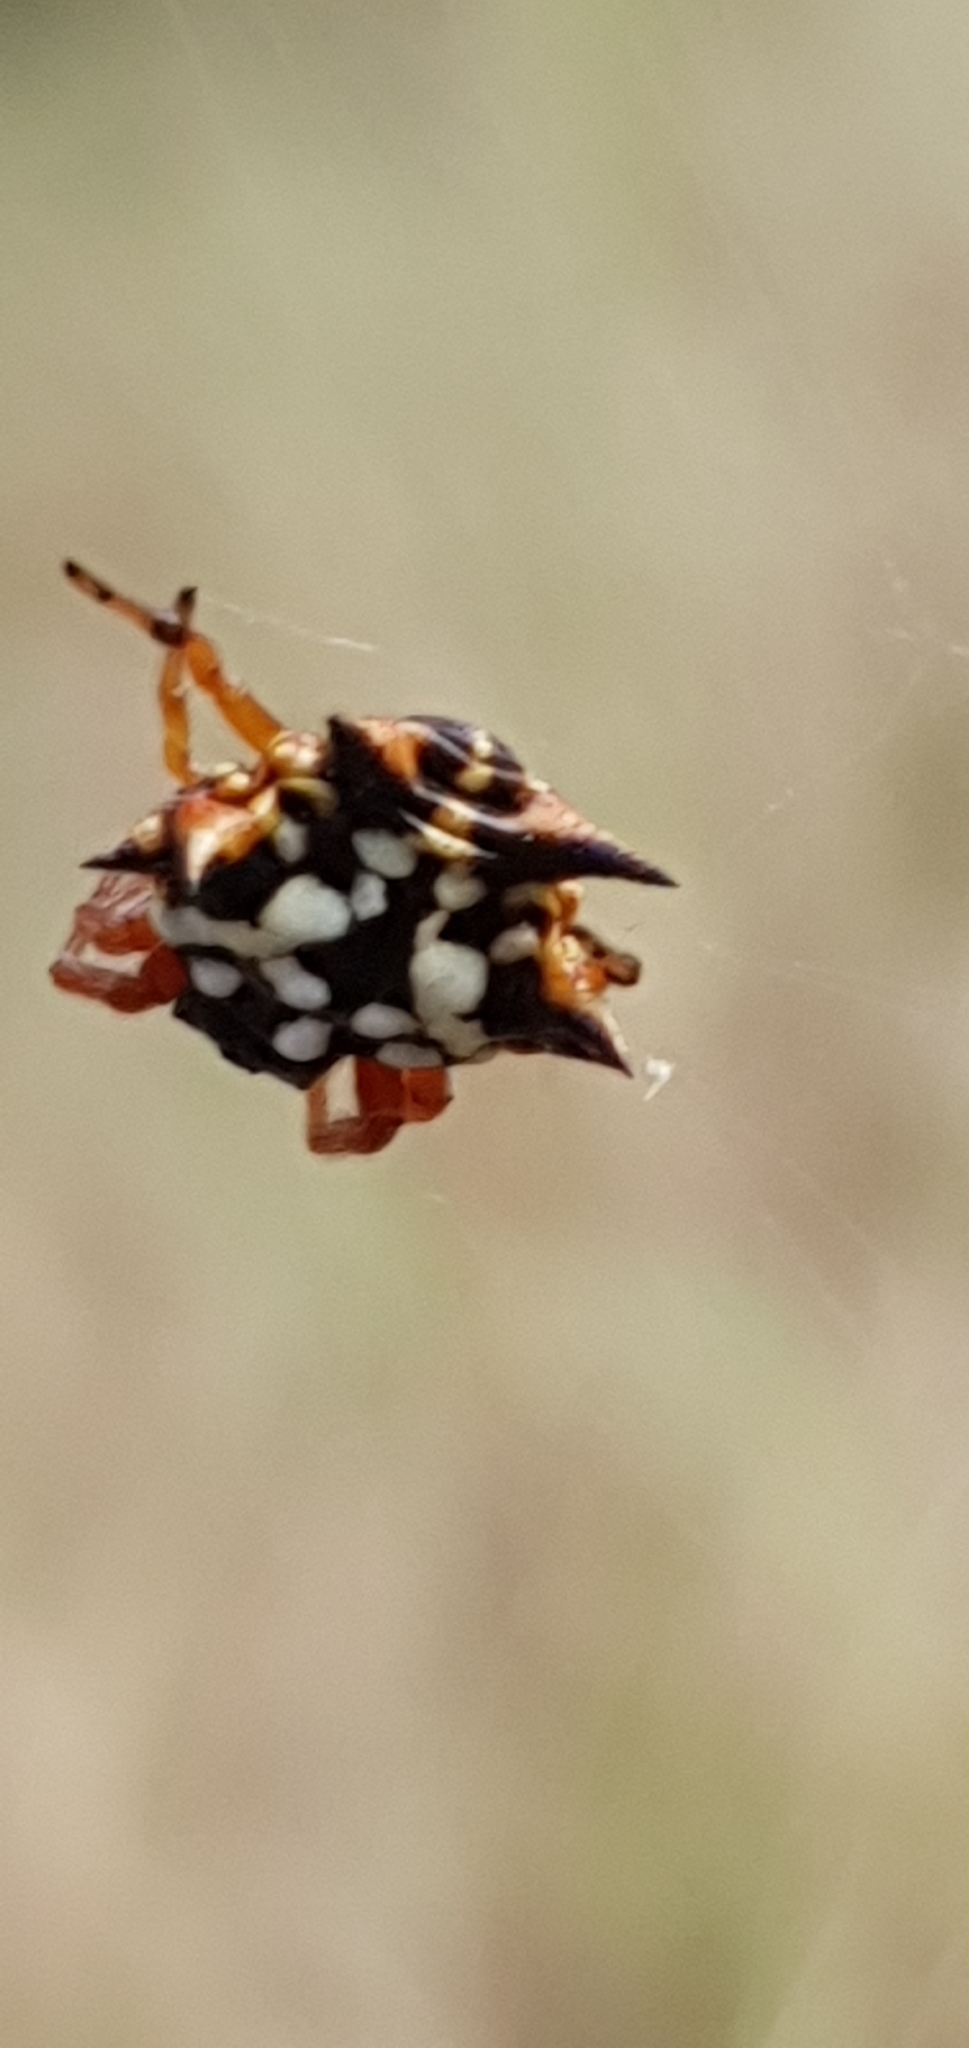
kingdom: Animalia
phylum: Arthropoda
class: Arachnida
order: Araneae
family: Araneidae
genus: Austracantha
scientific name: Austracantha minax
